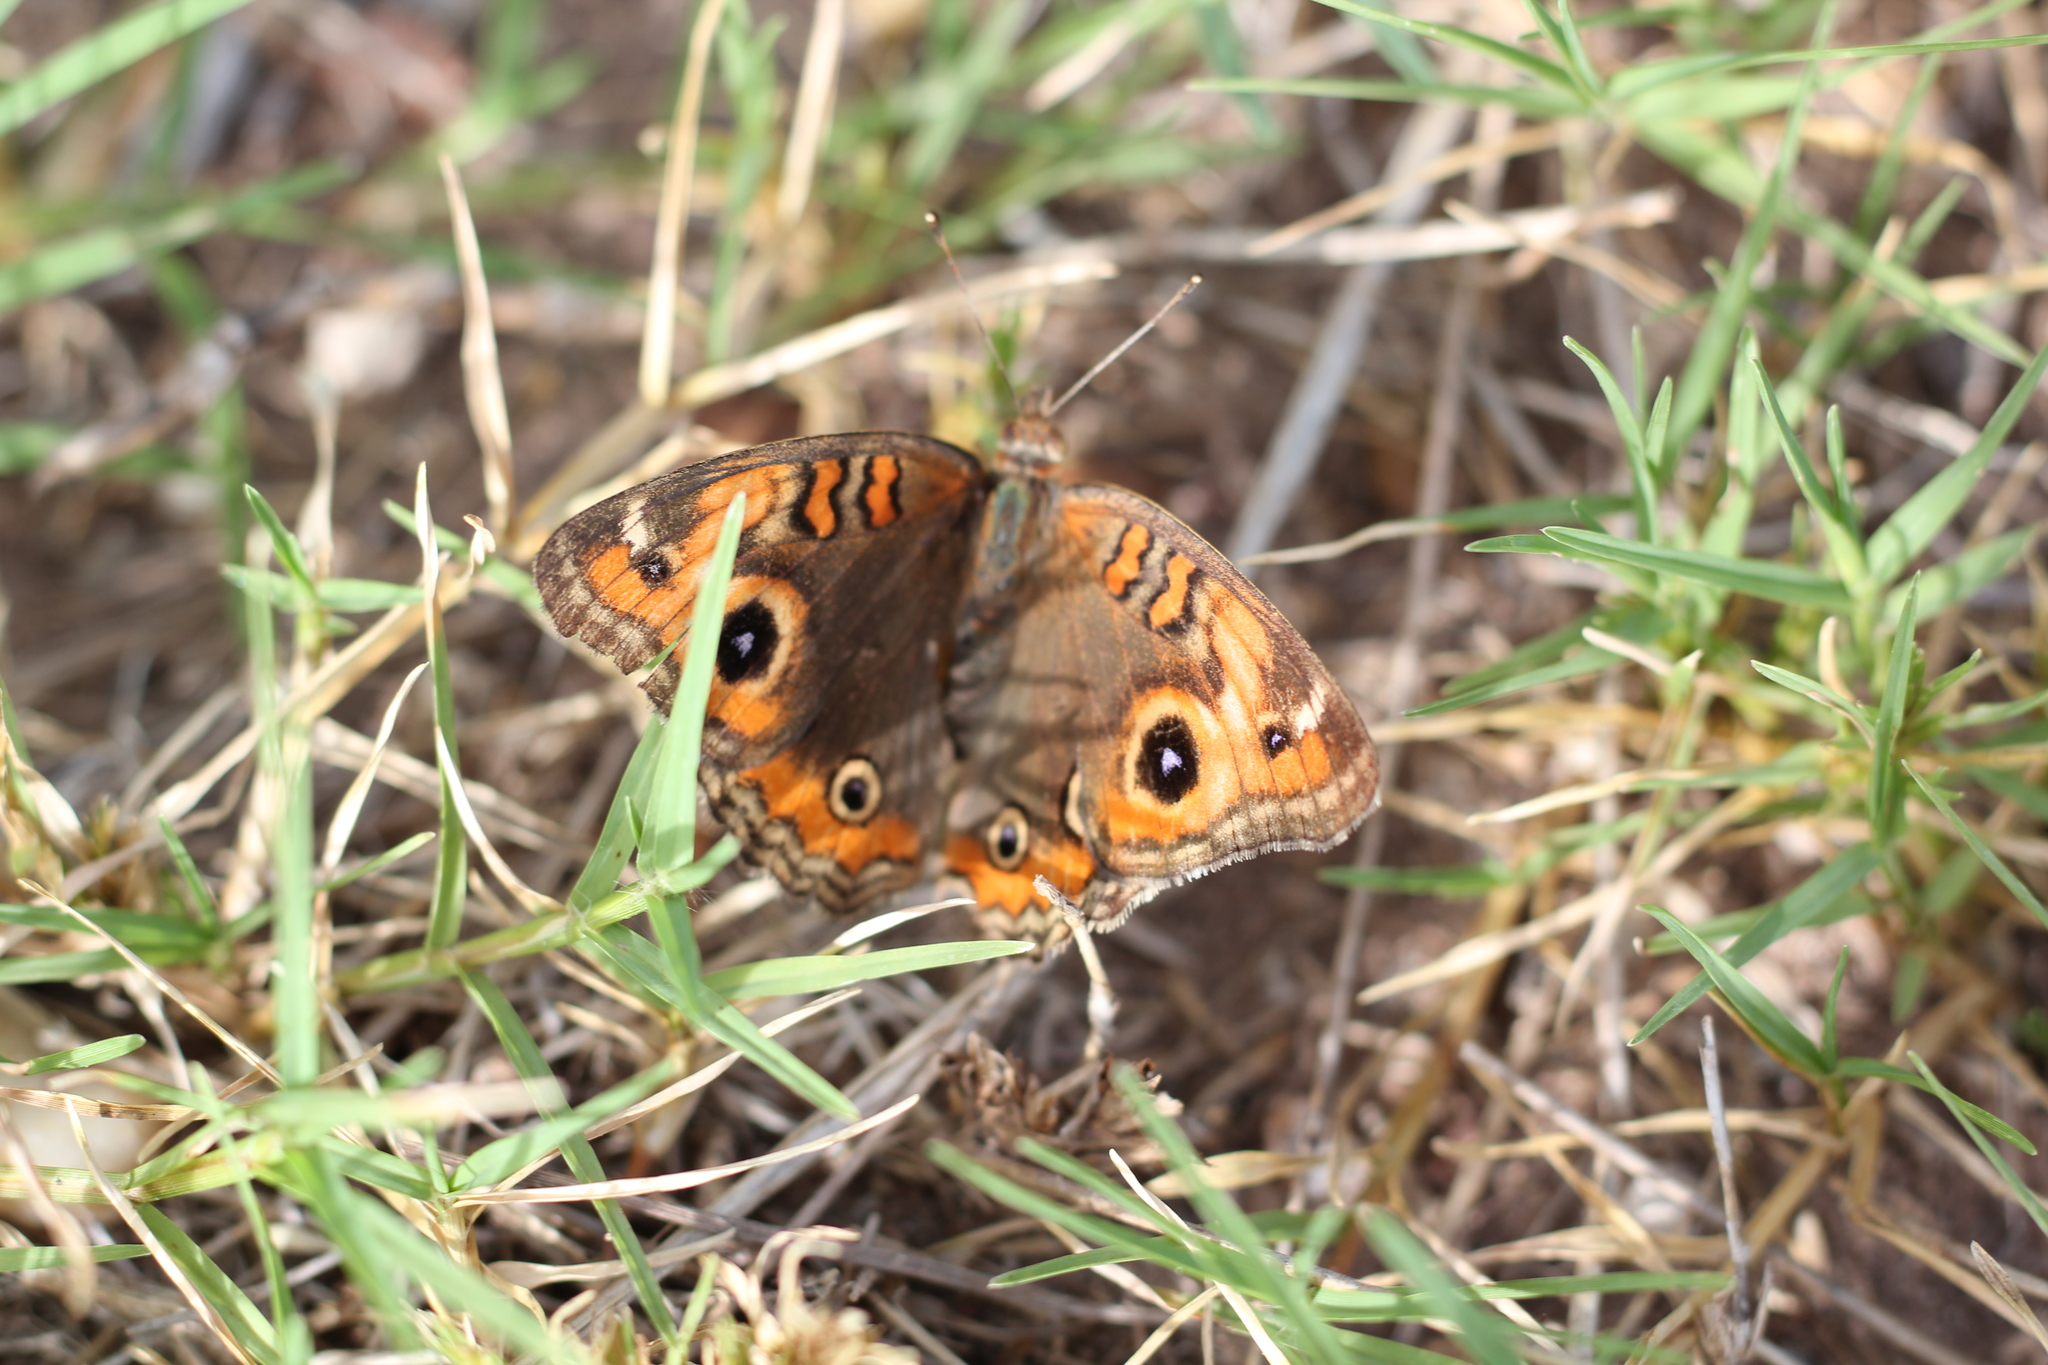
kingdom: Animalia
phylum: Arthropoda
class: Insecta
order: Lepidoptera
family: Nymphalidae
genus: Junonia
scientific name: Junonia lavinia
